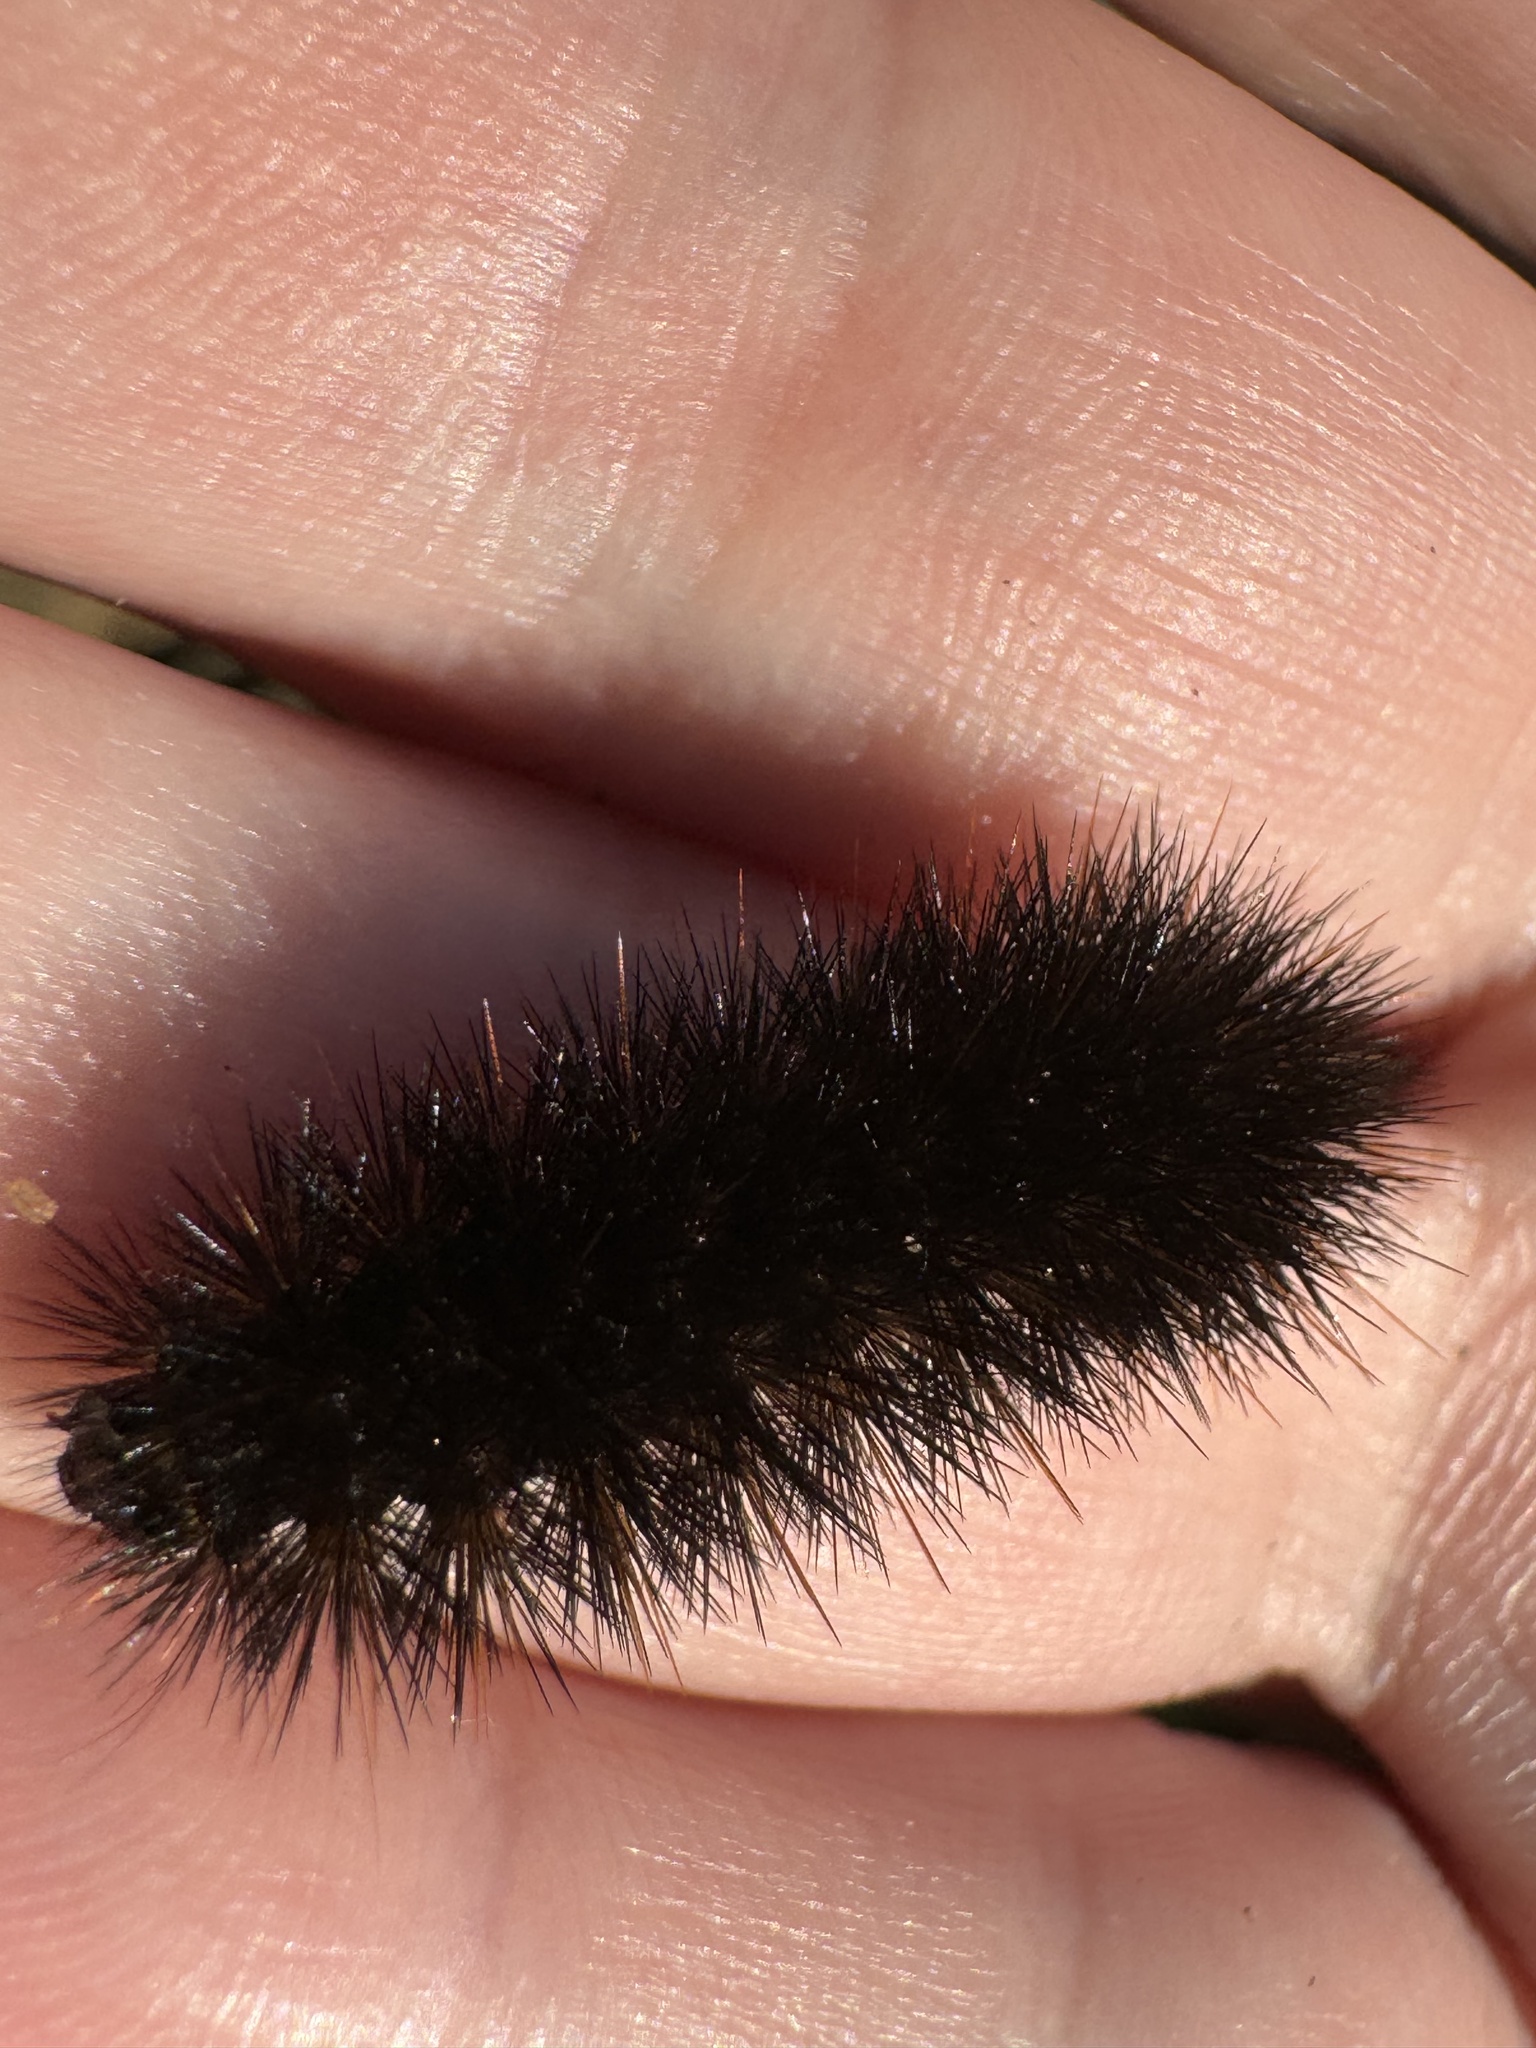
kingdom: Animalia
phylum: Arthropoda
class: Insecta
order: Lepidoptera
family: Erebidae
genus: Arachnis
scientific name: Arachnis picta
